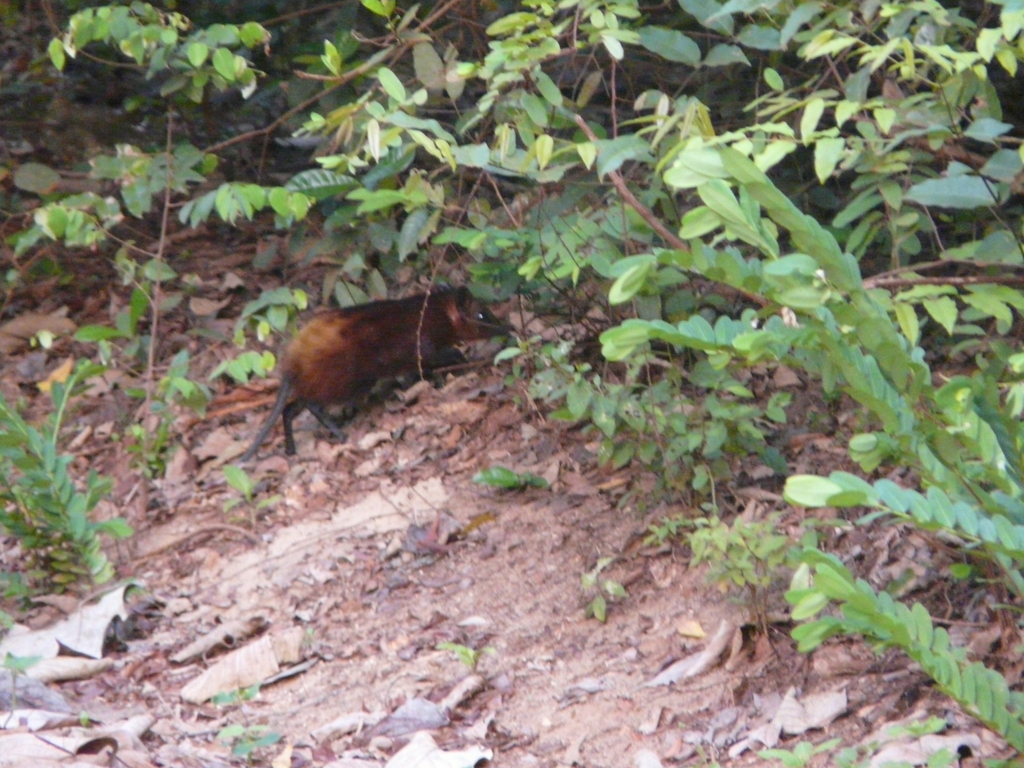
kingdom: Animalia
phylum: Chordata
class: Mammalia
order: Macroscelidea
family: Macroscelididae
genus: Rhynchocyon
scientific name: Rhynchocyon chrysopygus
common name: Golden-rumped elephant shrew
